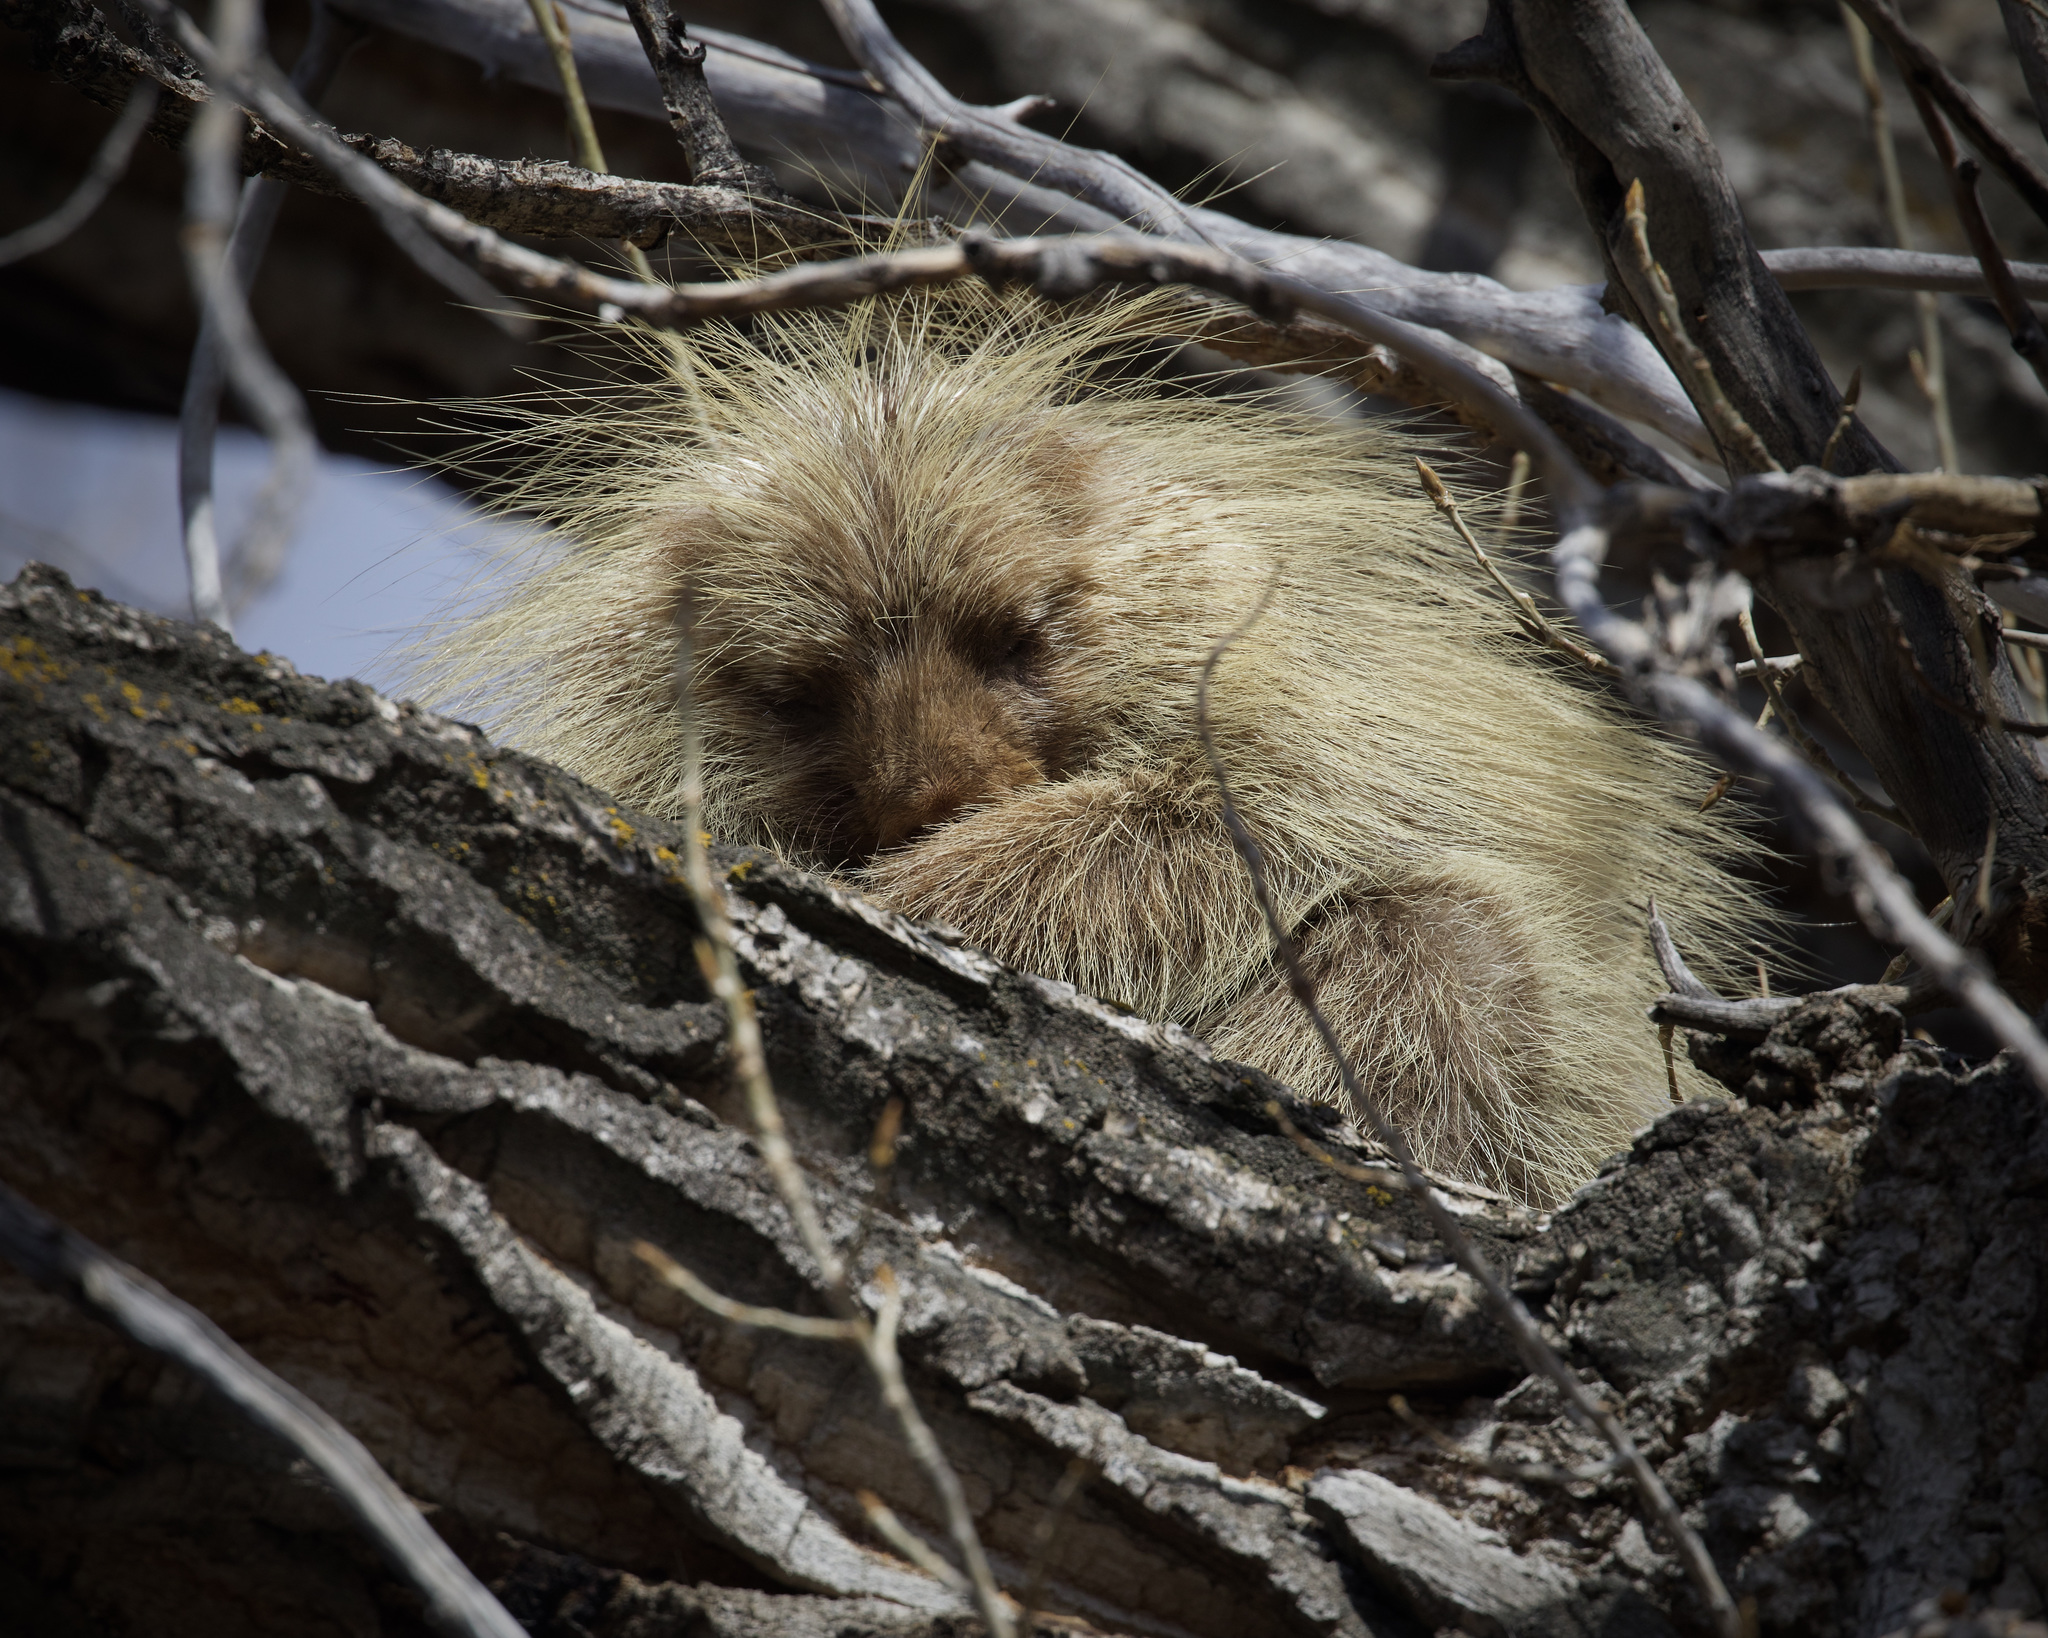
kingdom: Animalia
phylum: Chordata
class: Mammalia
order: Rodentia
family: Erethizontidae
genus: Erethizon
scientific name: Erethizon dorsatus
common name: North american porcupine
